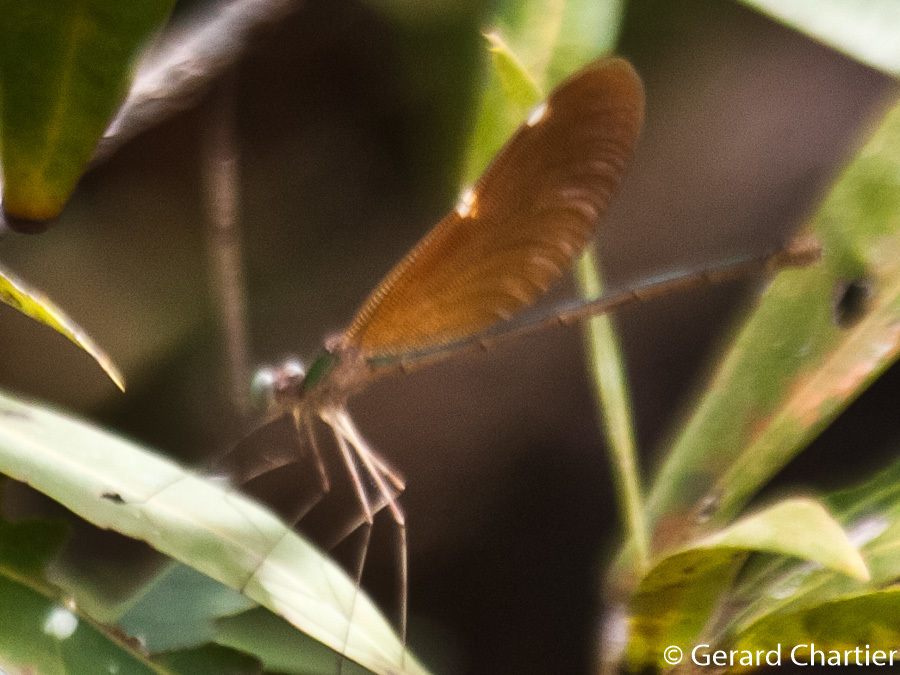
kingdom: Animalia
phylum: Arthropoda
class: Insecta
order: Odonata
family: Calopterygidae
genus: Neurobasis
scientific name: Neurobasis chinensis
